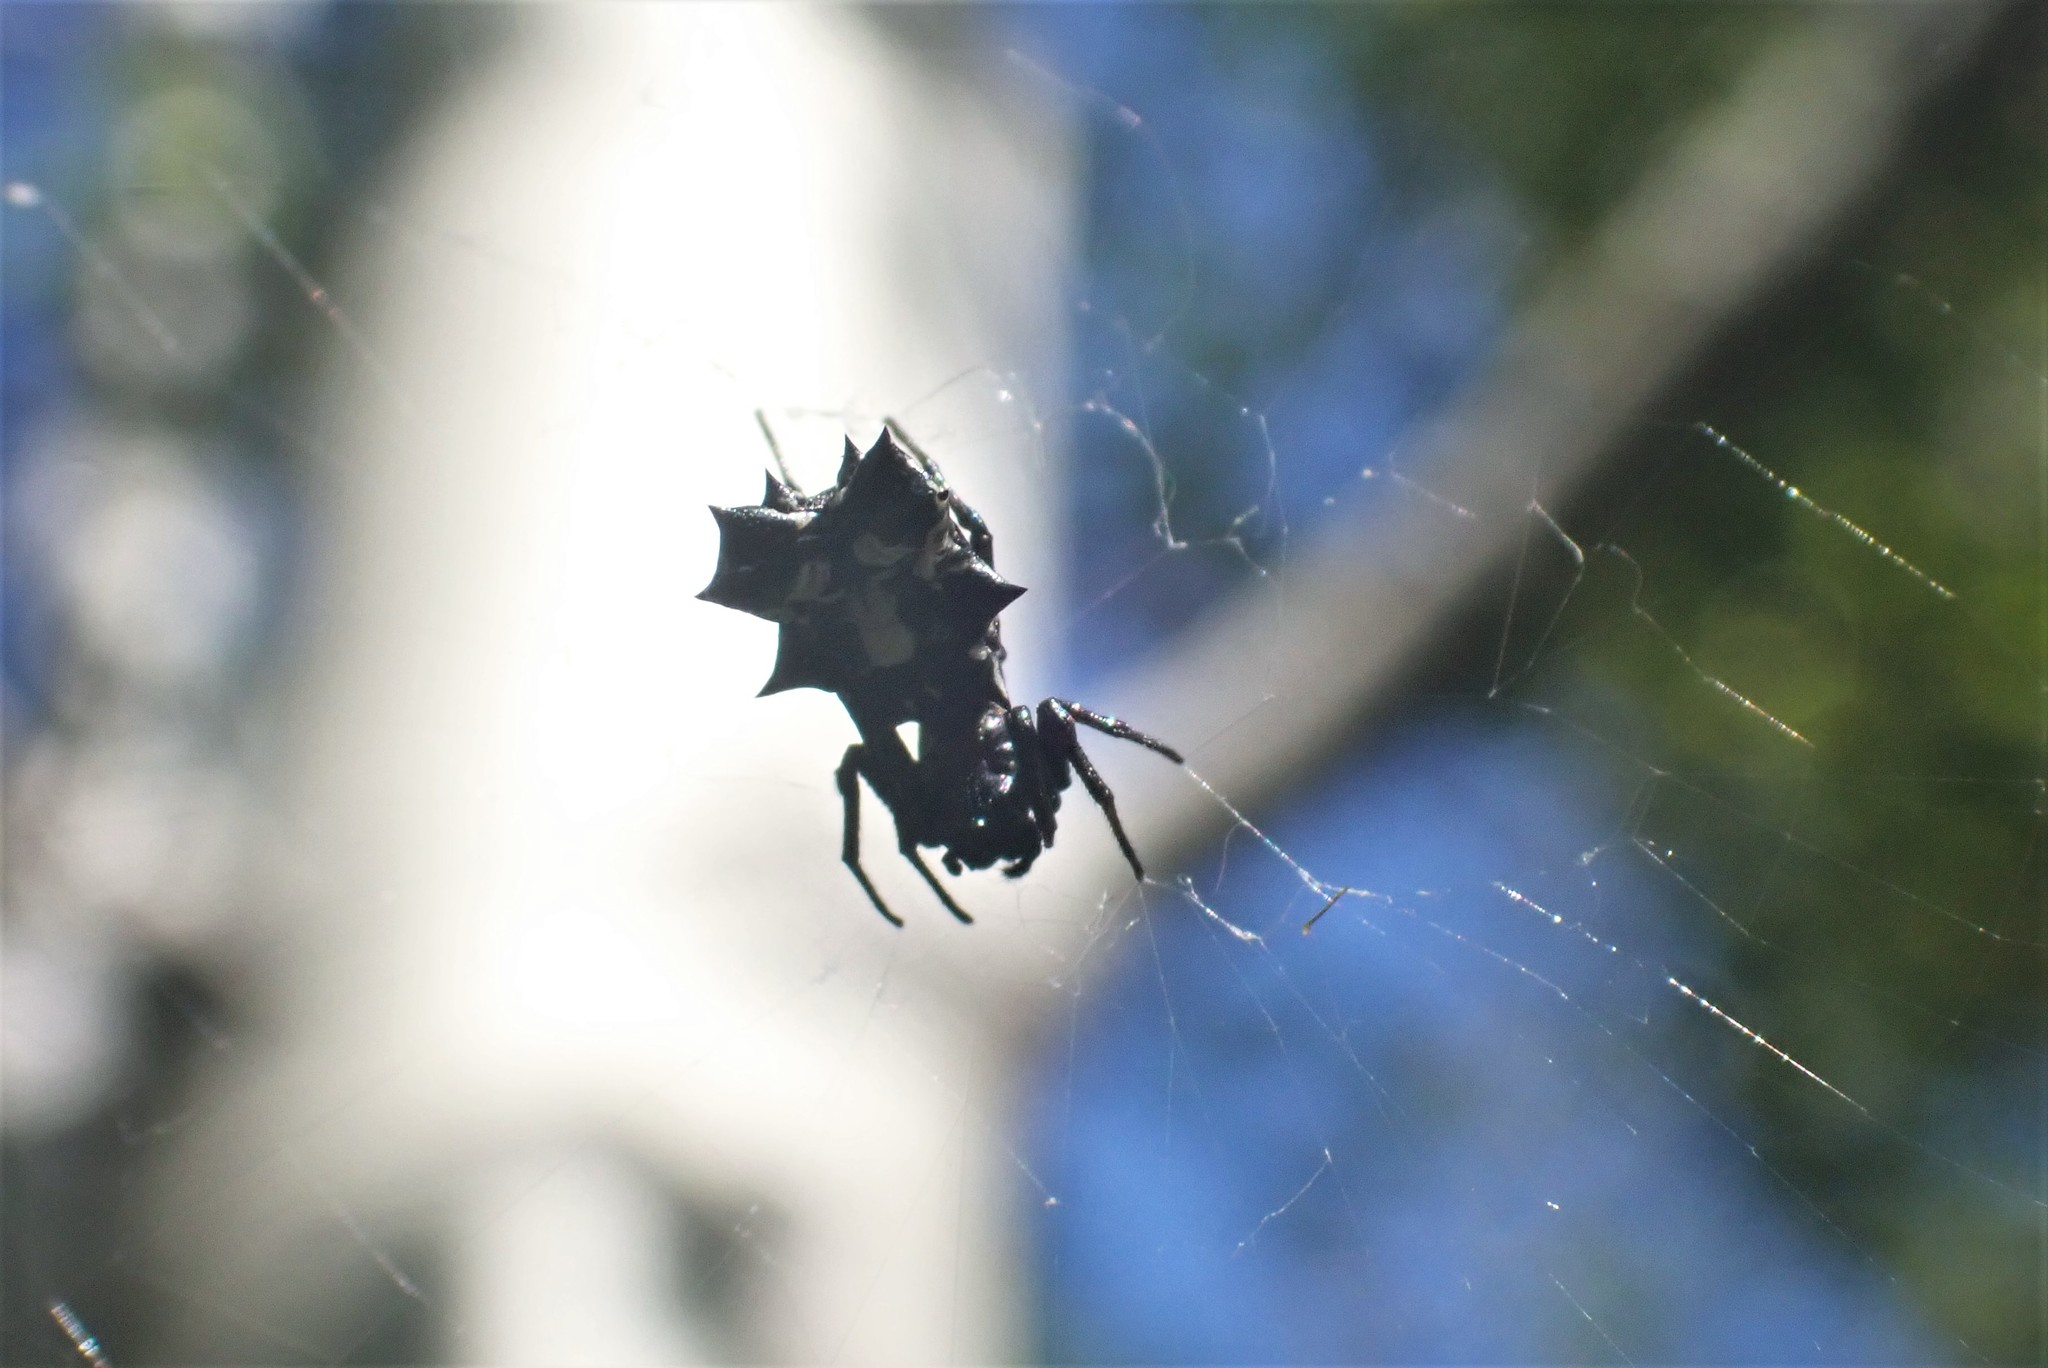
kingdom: Animalia
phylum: Arthropoda
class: Arachnida
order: Araneae
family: Araneidae
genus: Micrathena
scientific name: Micrathena gracilis
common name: Orb weavers
